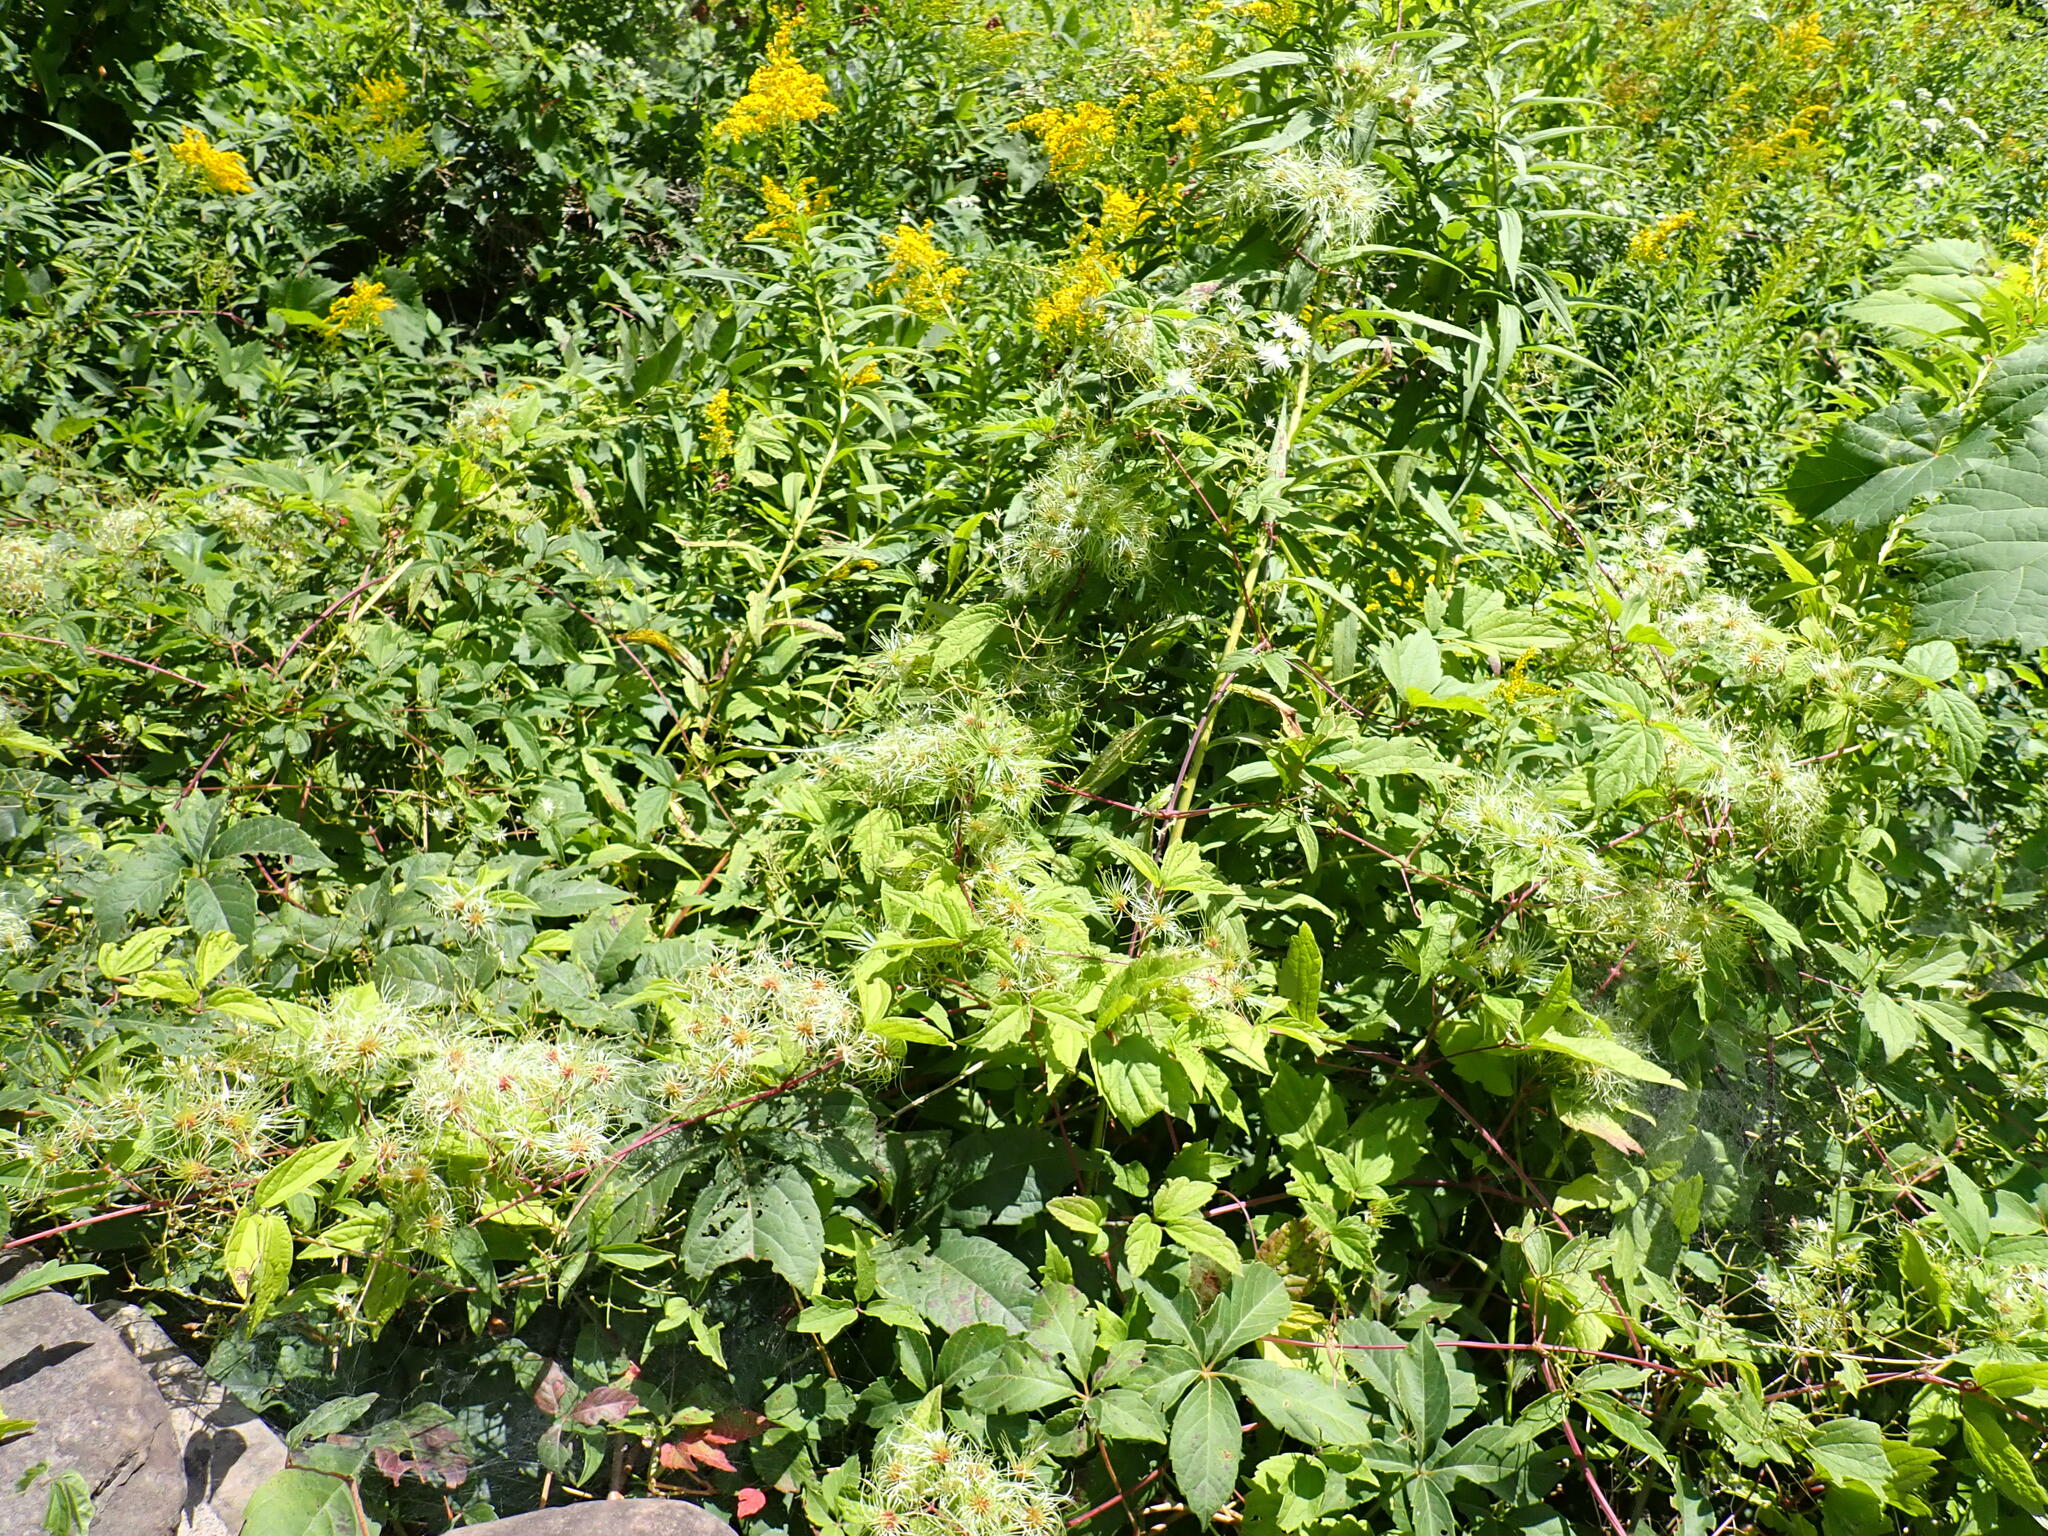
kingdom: Plantae
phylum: Tracheophyta
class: Magnoliopsida
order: Ranunculales
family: Ranunculaceae
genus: Clematis
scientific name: Clematis virginiana
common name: Virgin's-bower
